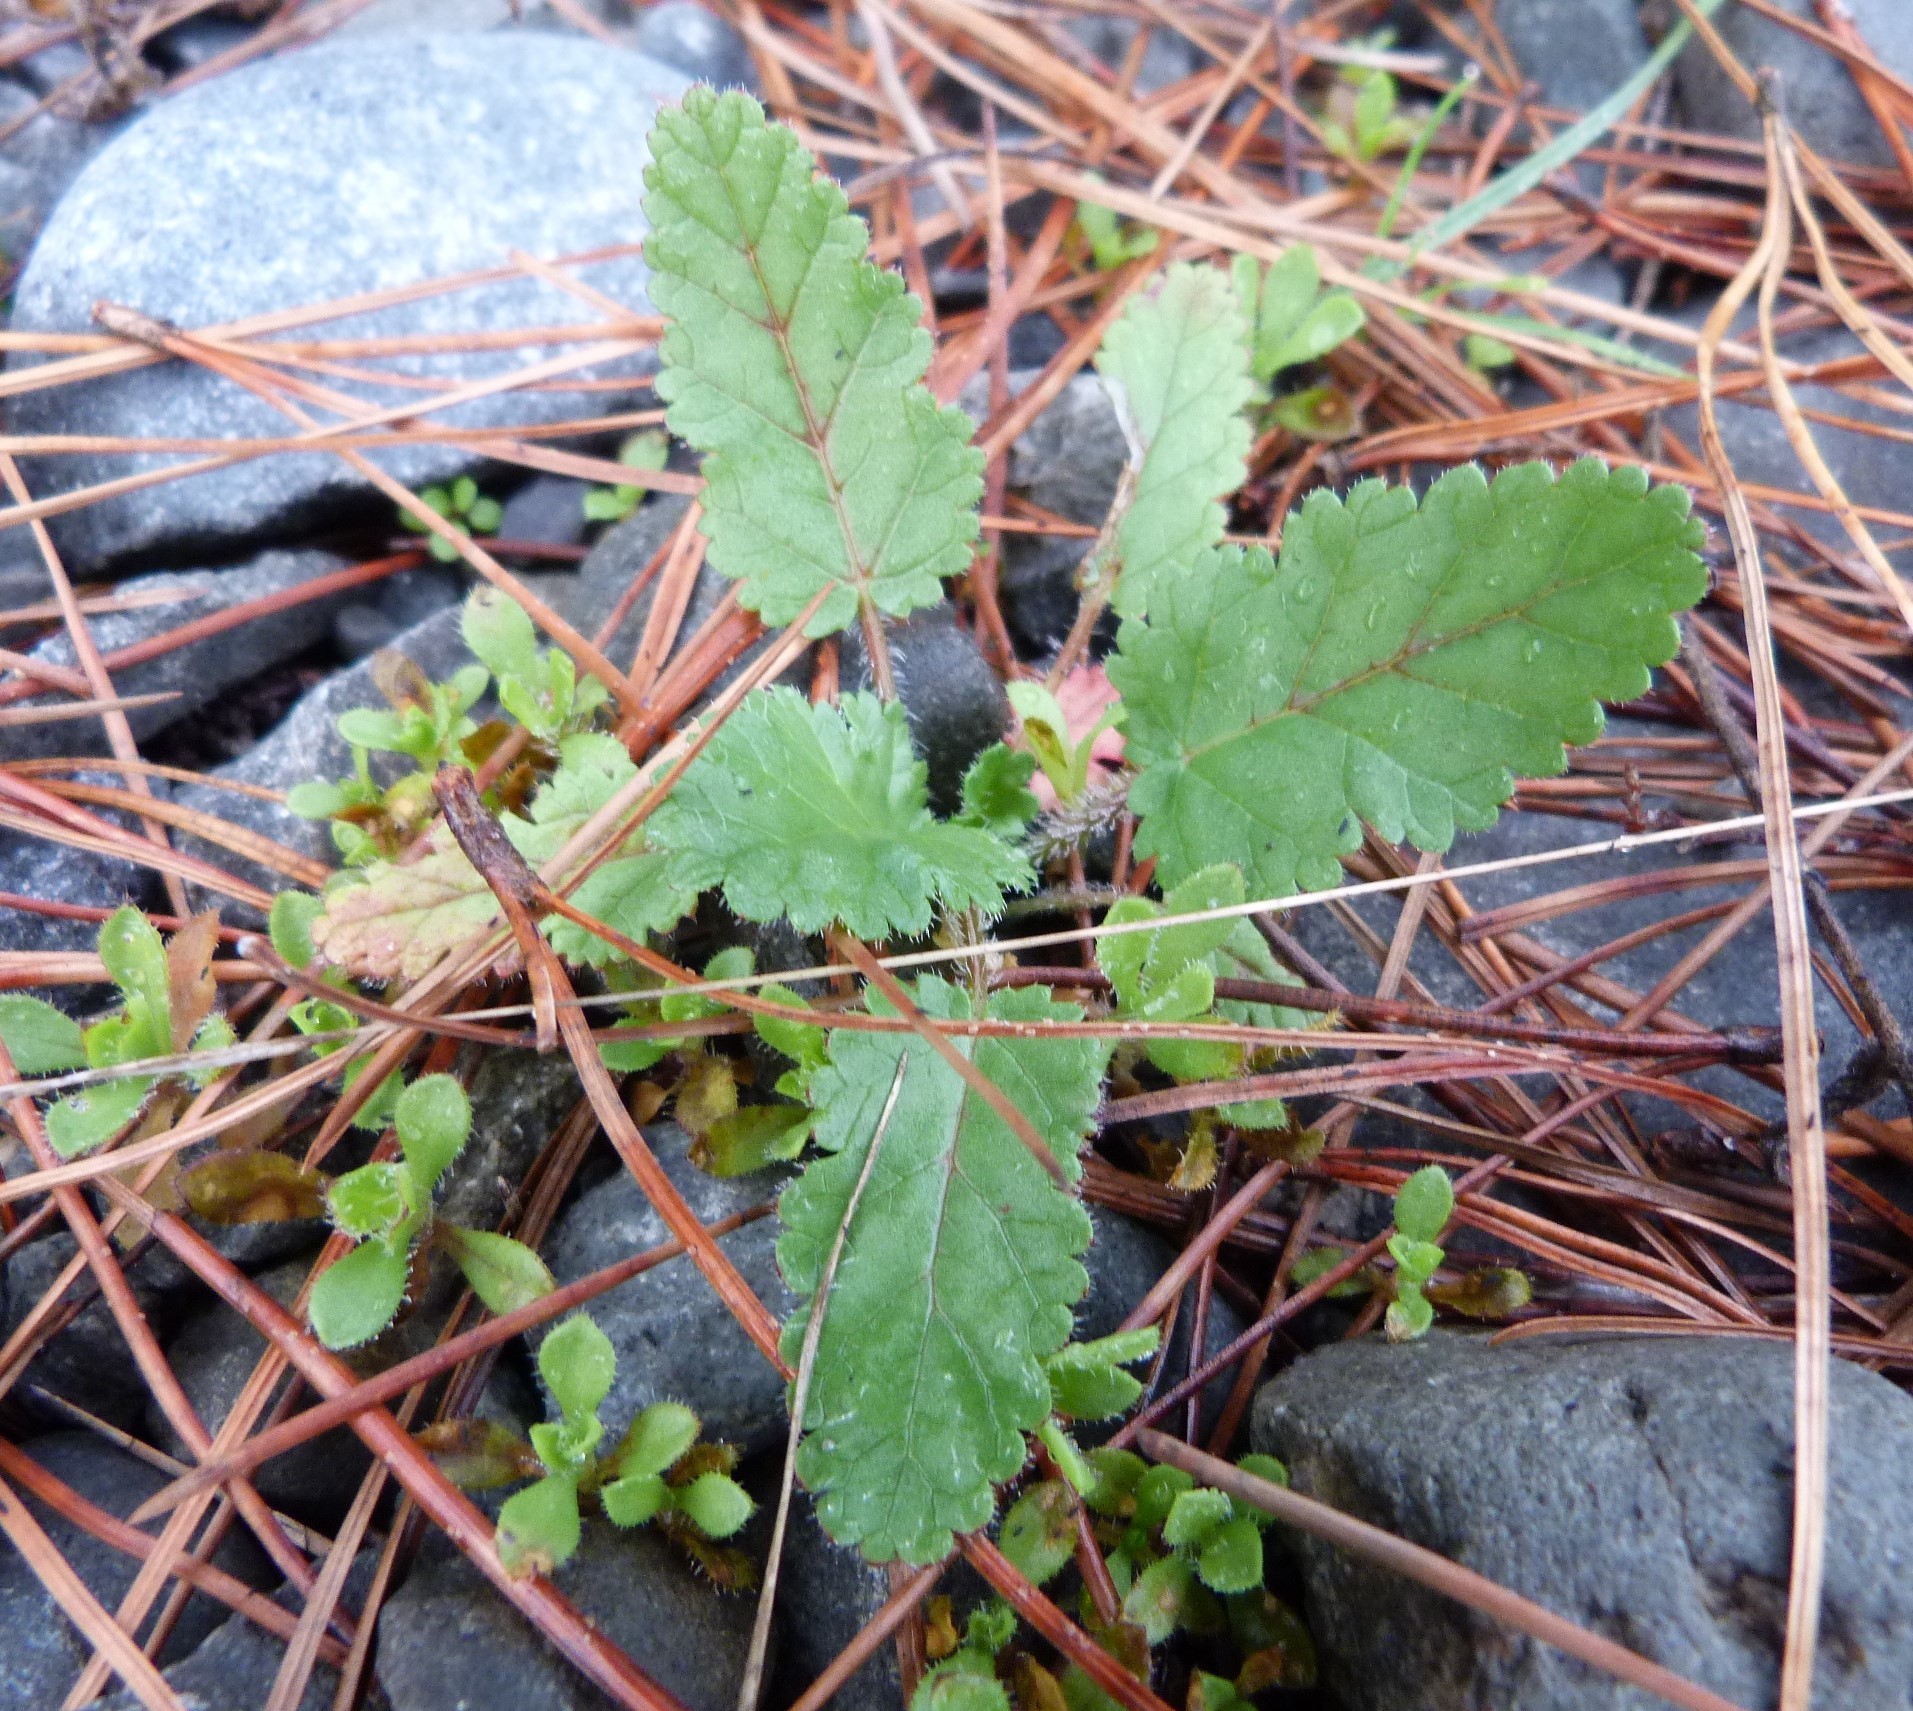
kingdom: Plantae
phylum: Tracheophyta
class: Magnoliopsida
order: Geraniales
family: Geraniaceae
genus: Erodium
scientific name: Erodium botrys
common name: Mediterranean stork's-bill
